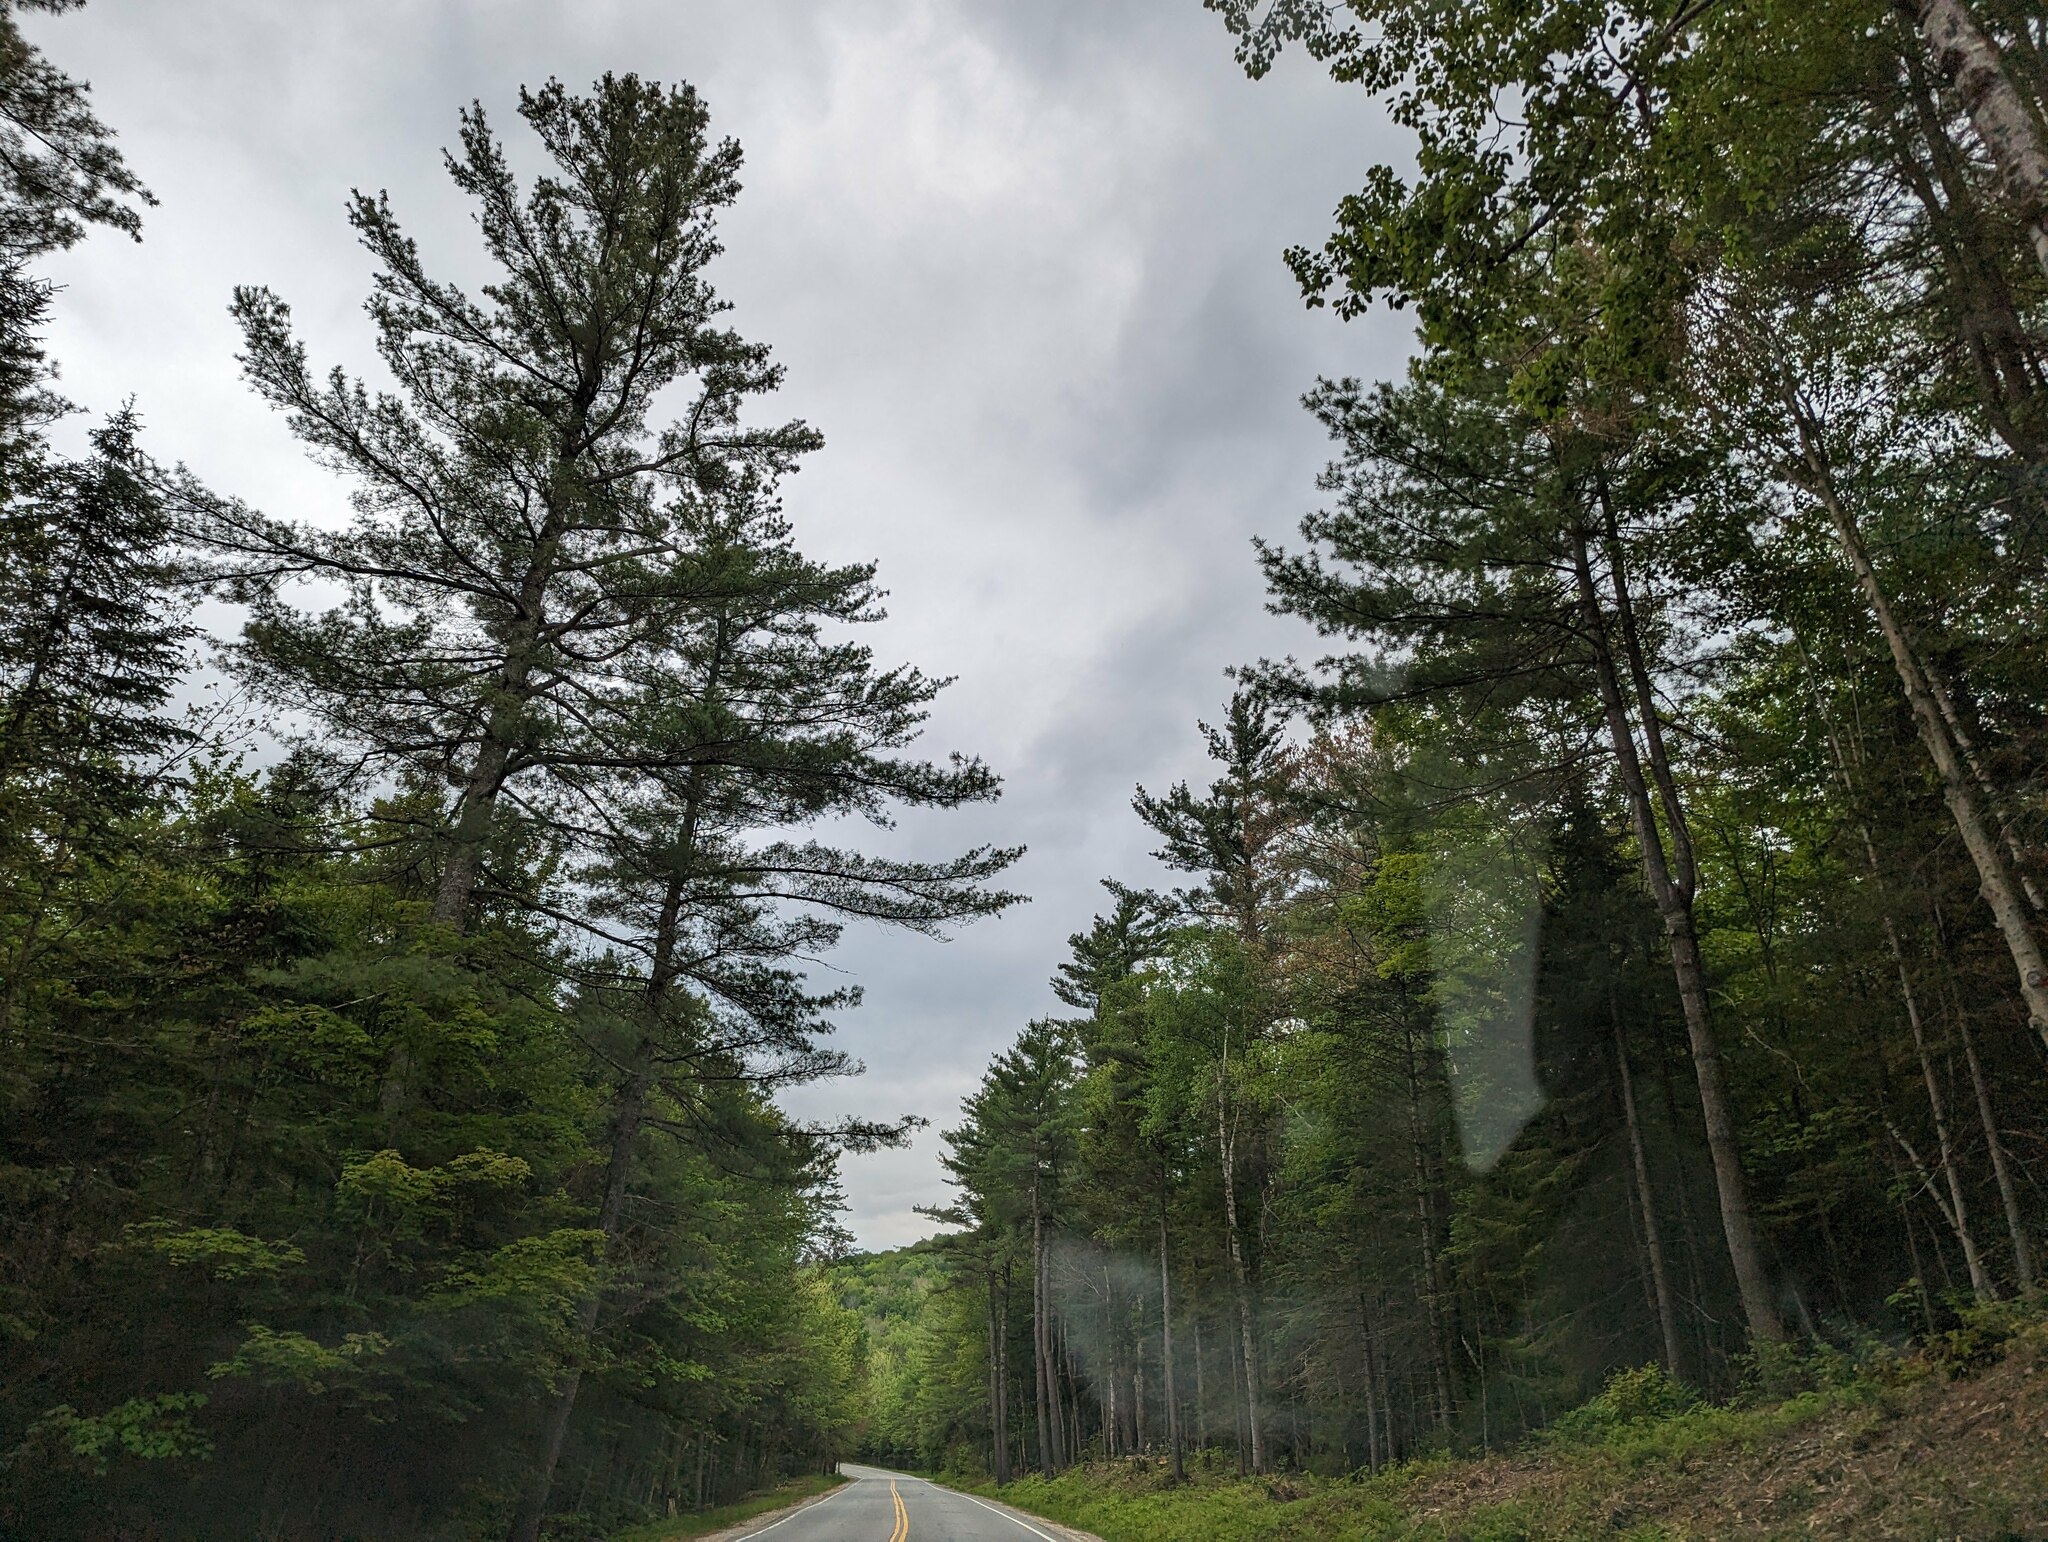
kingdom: Plantae
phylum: Tracheophyta
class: Pinopsida
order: Pinales
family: Pinaceae
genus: Pinus
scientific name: Pinus strobus
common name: Weymouth pine
